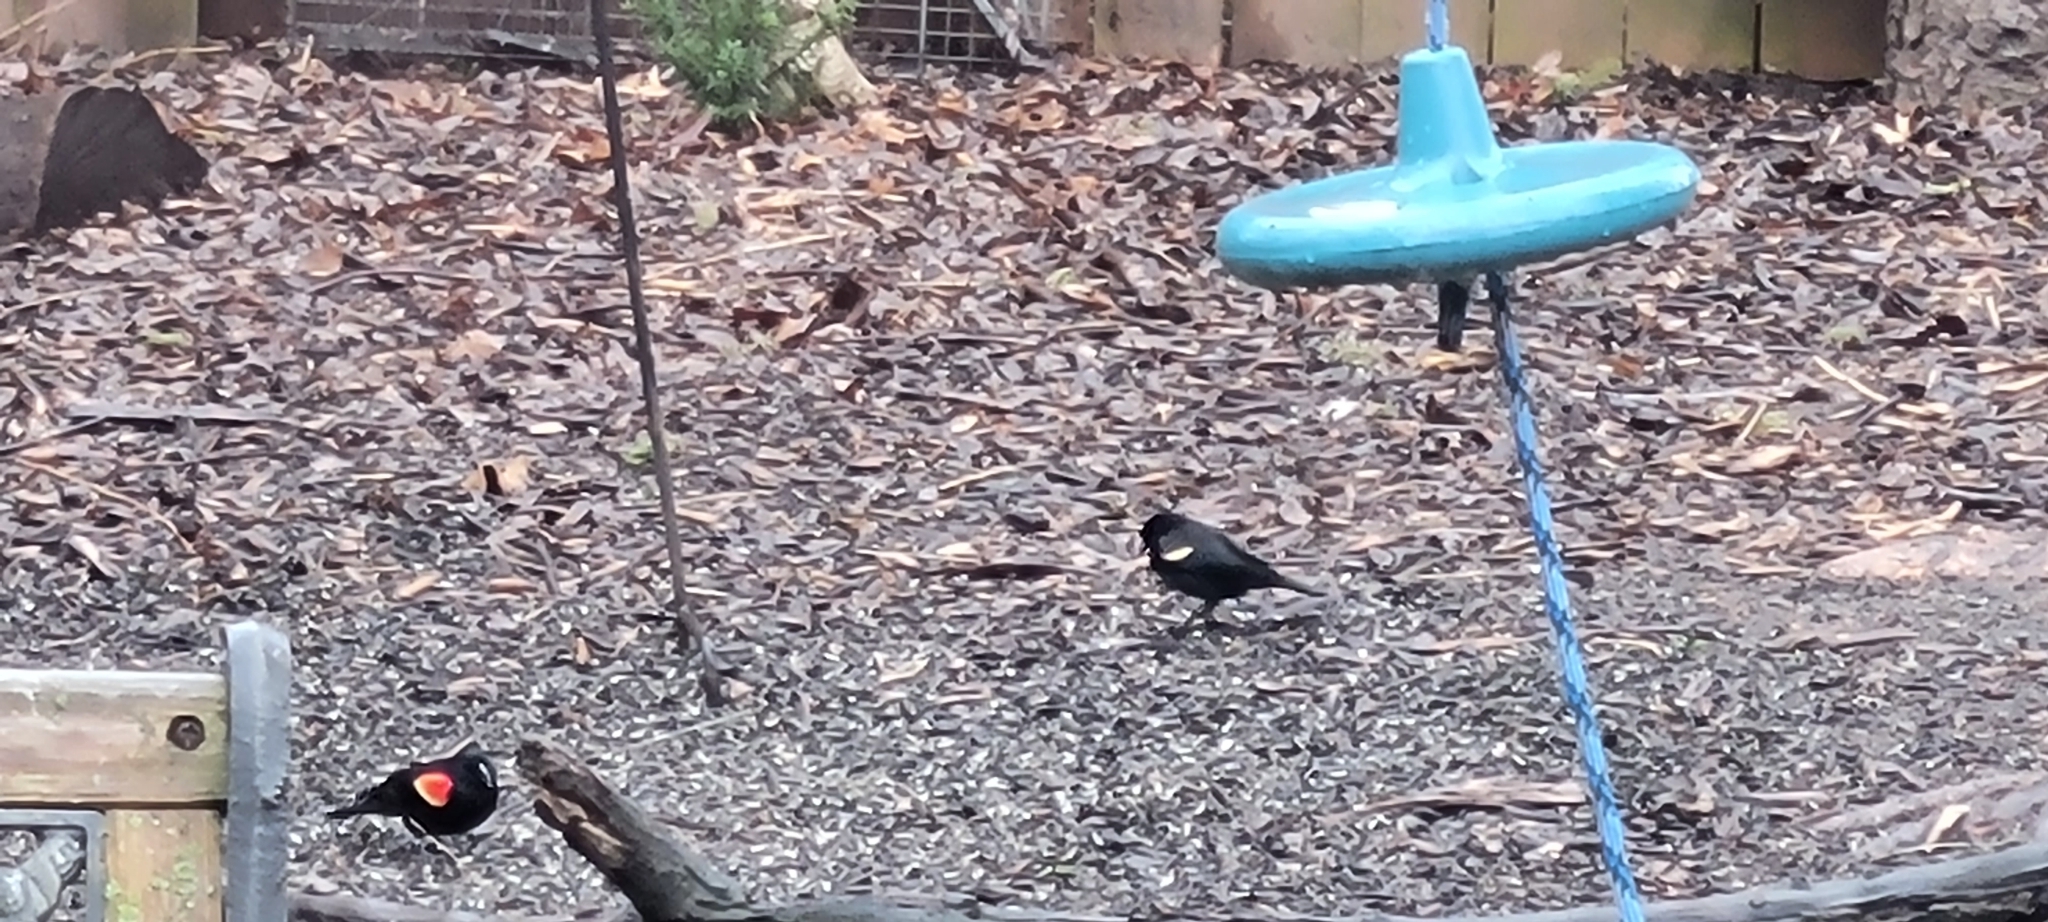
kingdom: Animalia
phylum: Chordata
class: Aves
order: Passeriformes
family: Icteridae
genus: Agelaius
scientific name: Agelaius phoeniceus
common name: Red-winged blackbird
